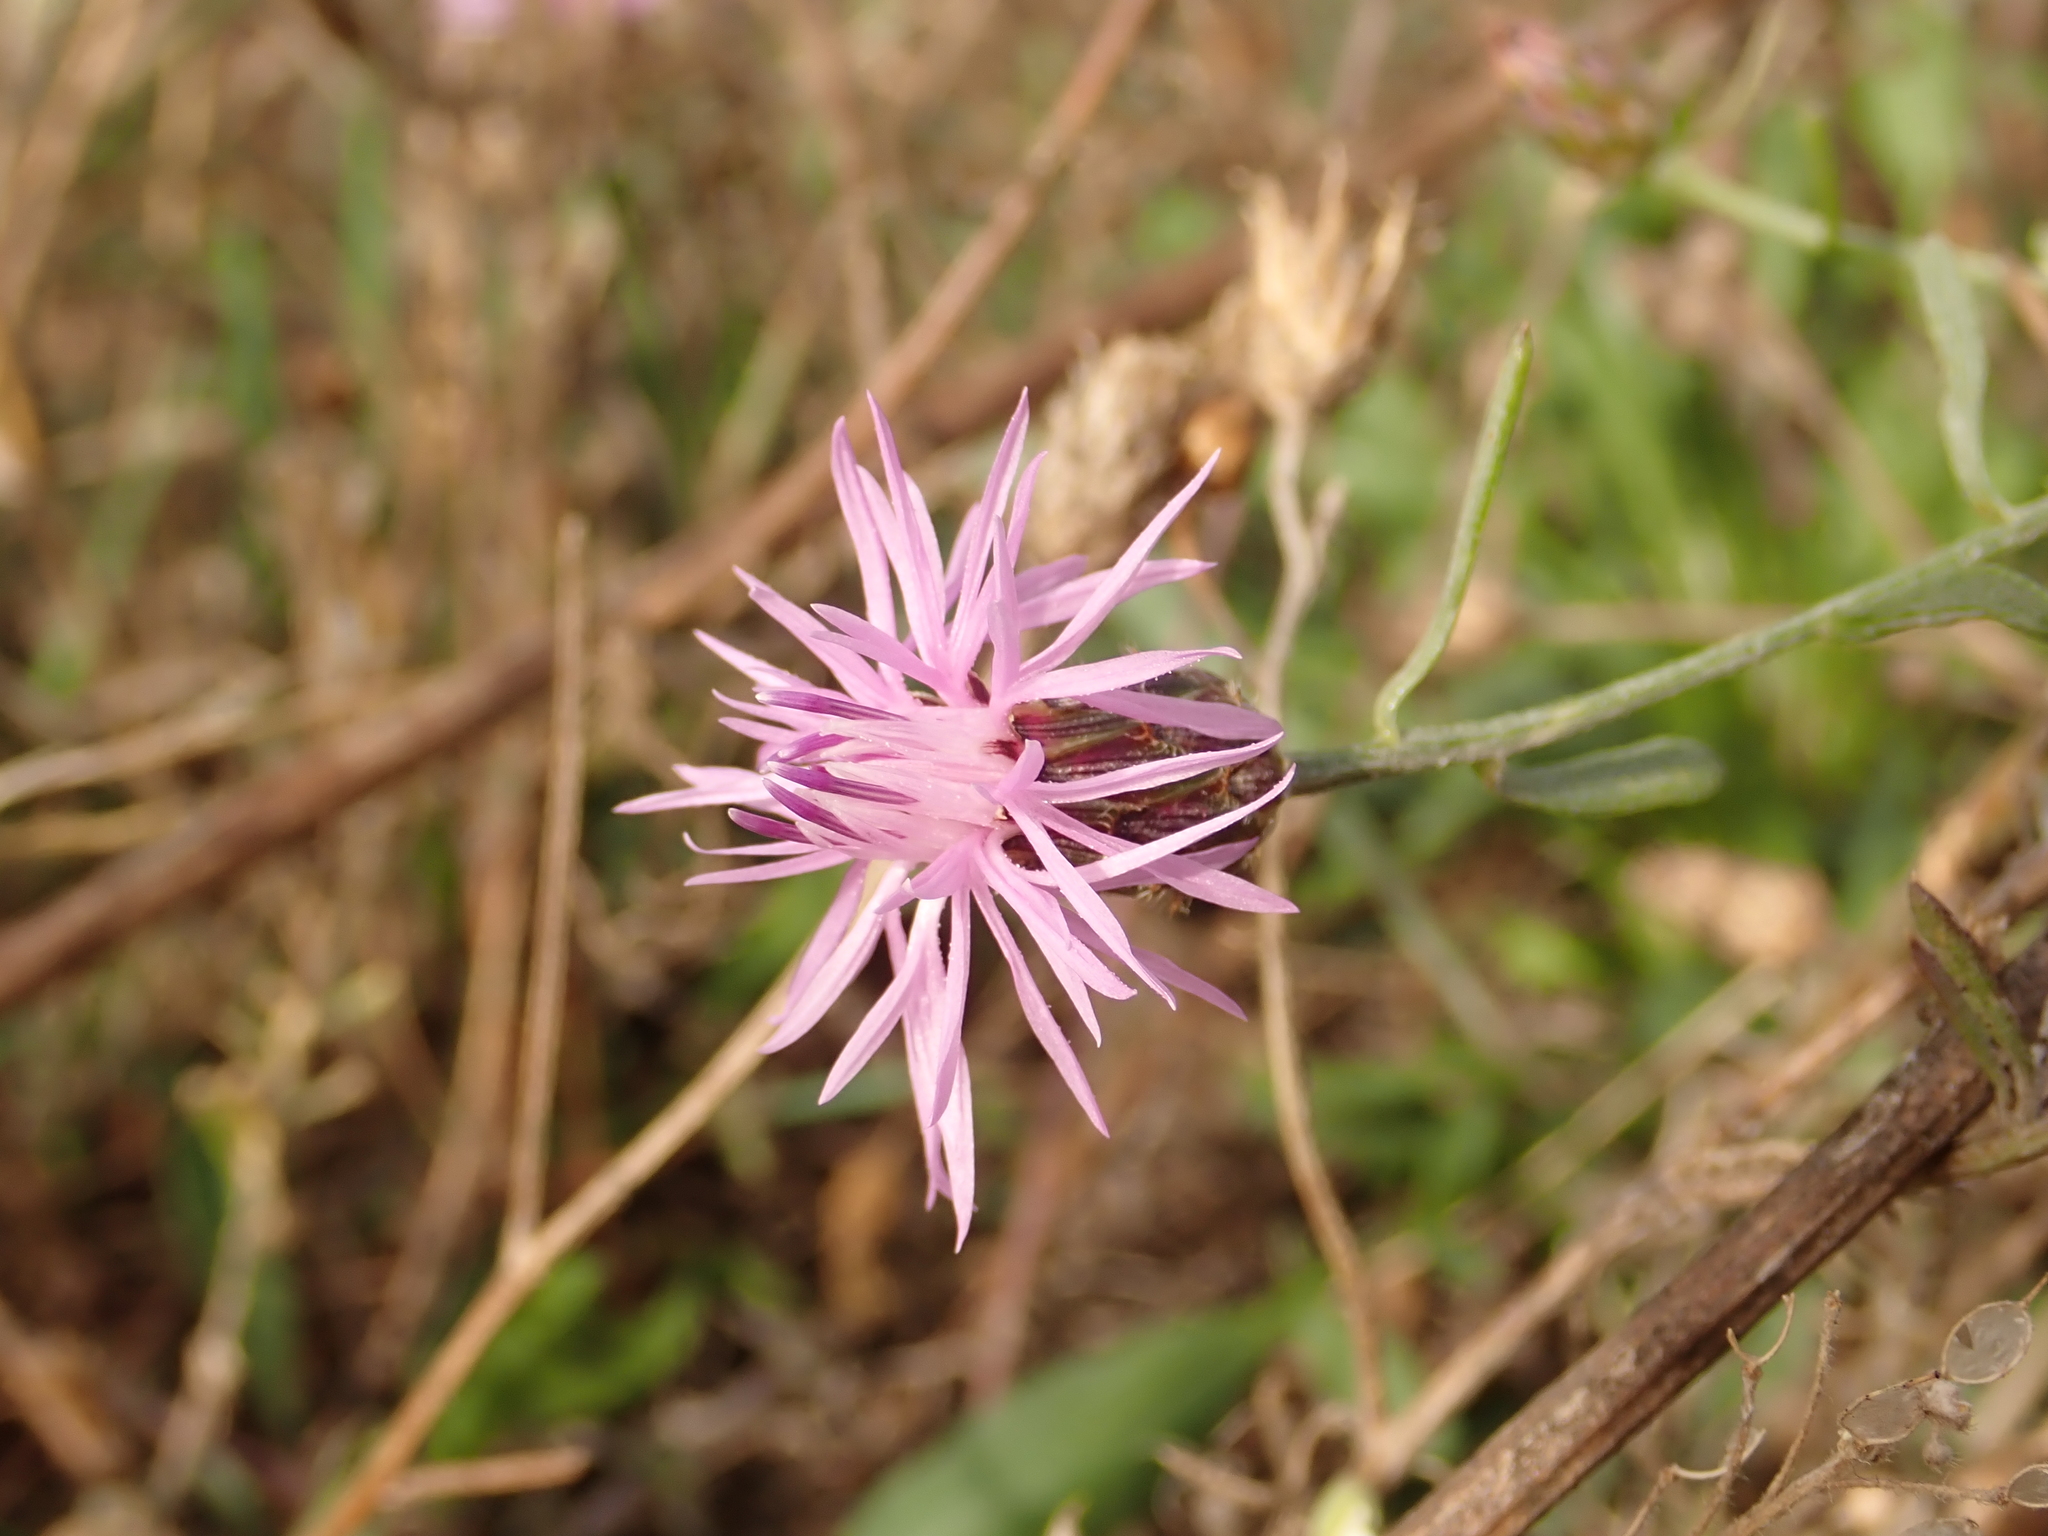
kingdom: Plantae
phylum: Tracheophyta
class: Magnoliopsida
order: Asterales
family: Asteraceae
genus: Centaurea
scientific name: Centaurea stoebe
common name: Spotted knapweed
